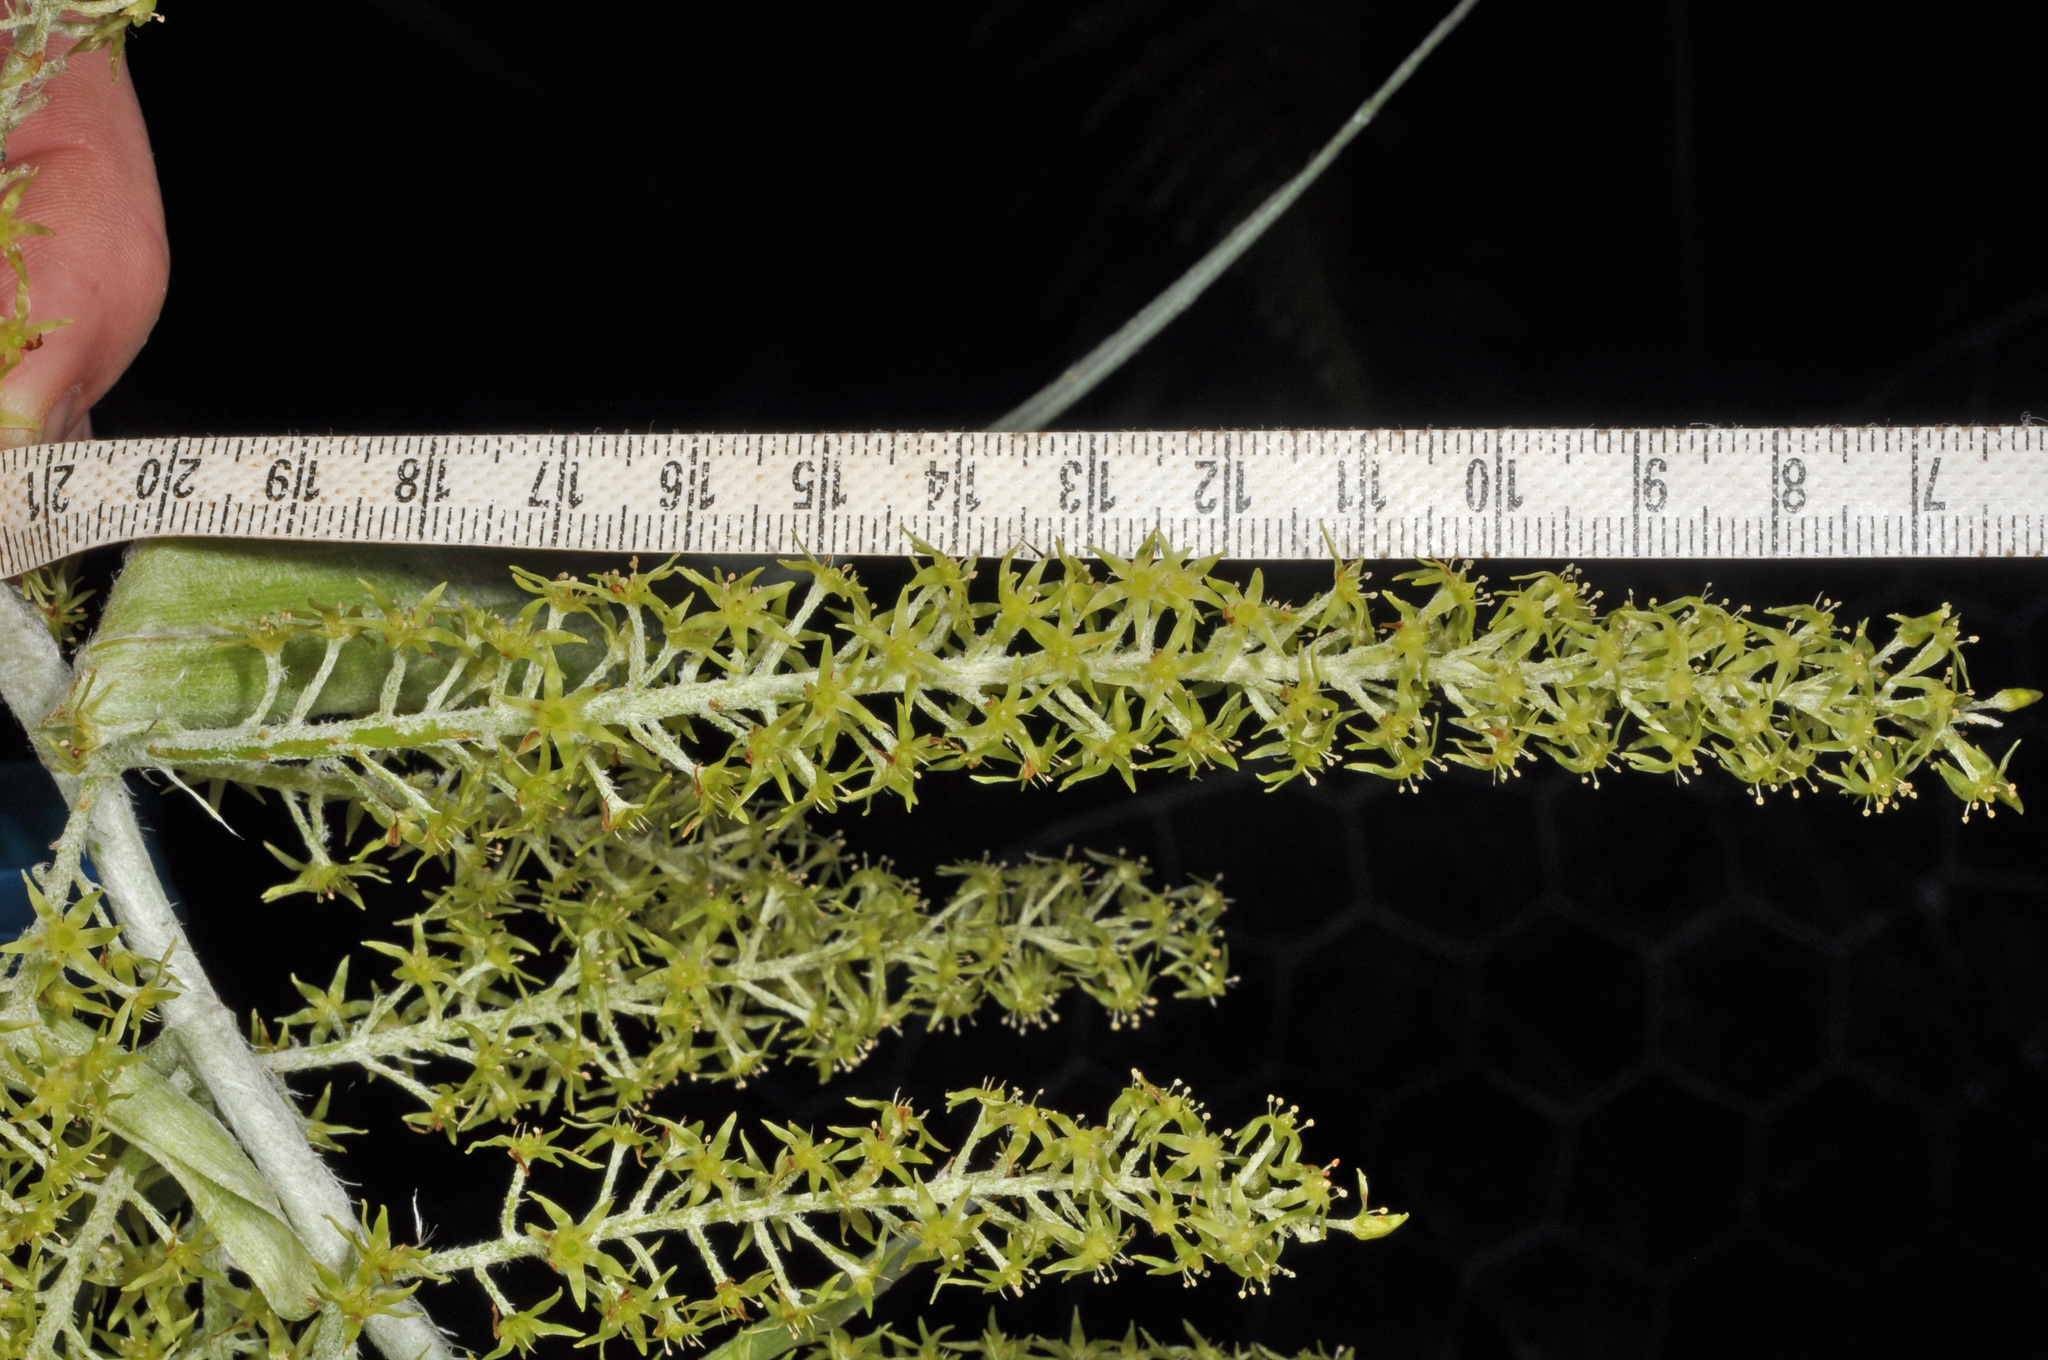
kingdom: Plantae
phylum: Tracheophyta
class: Liliopsida
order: Asparagales
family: Asteliaceae
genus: Astelia
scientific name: Astelia solandri
